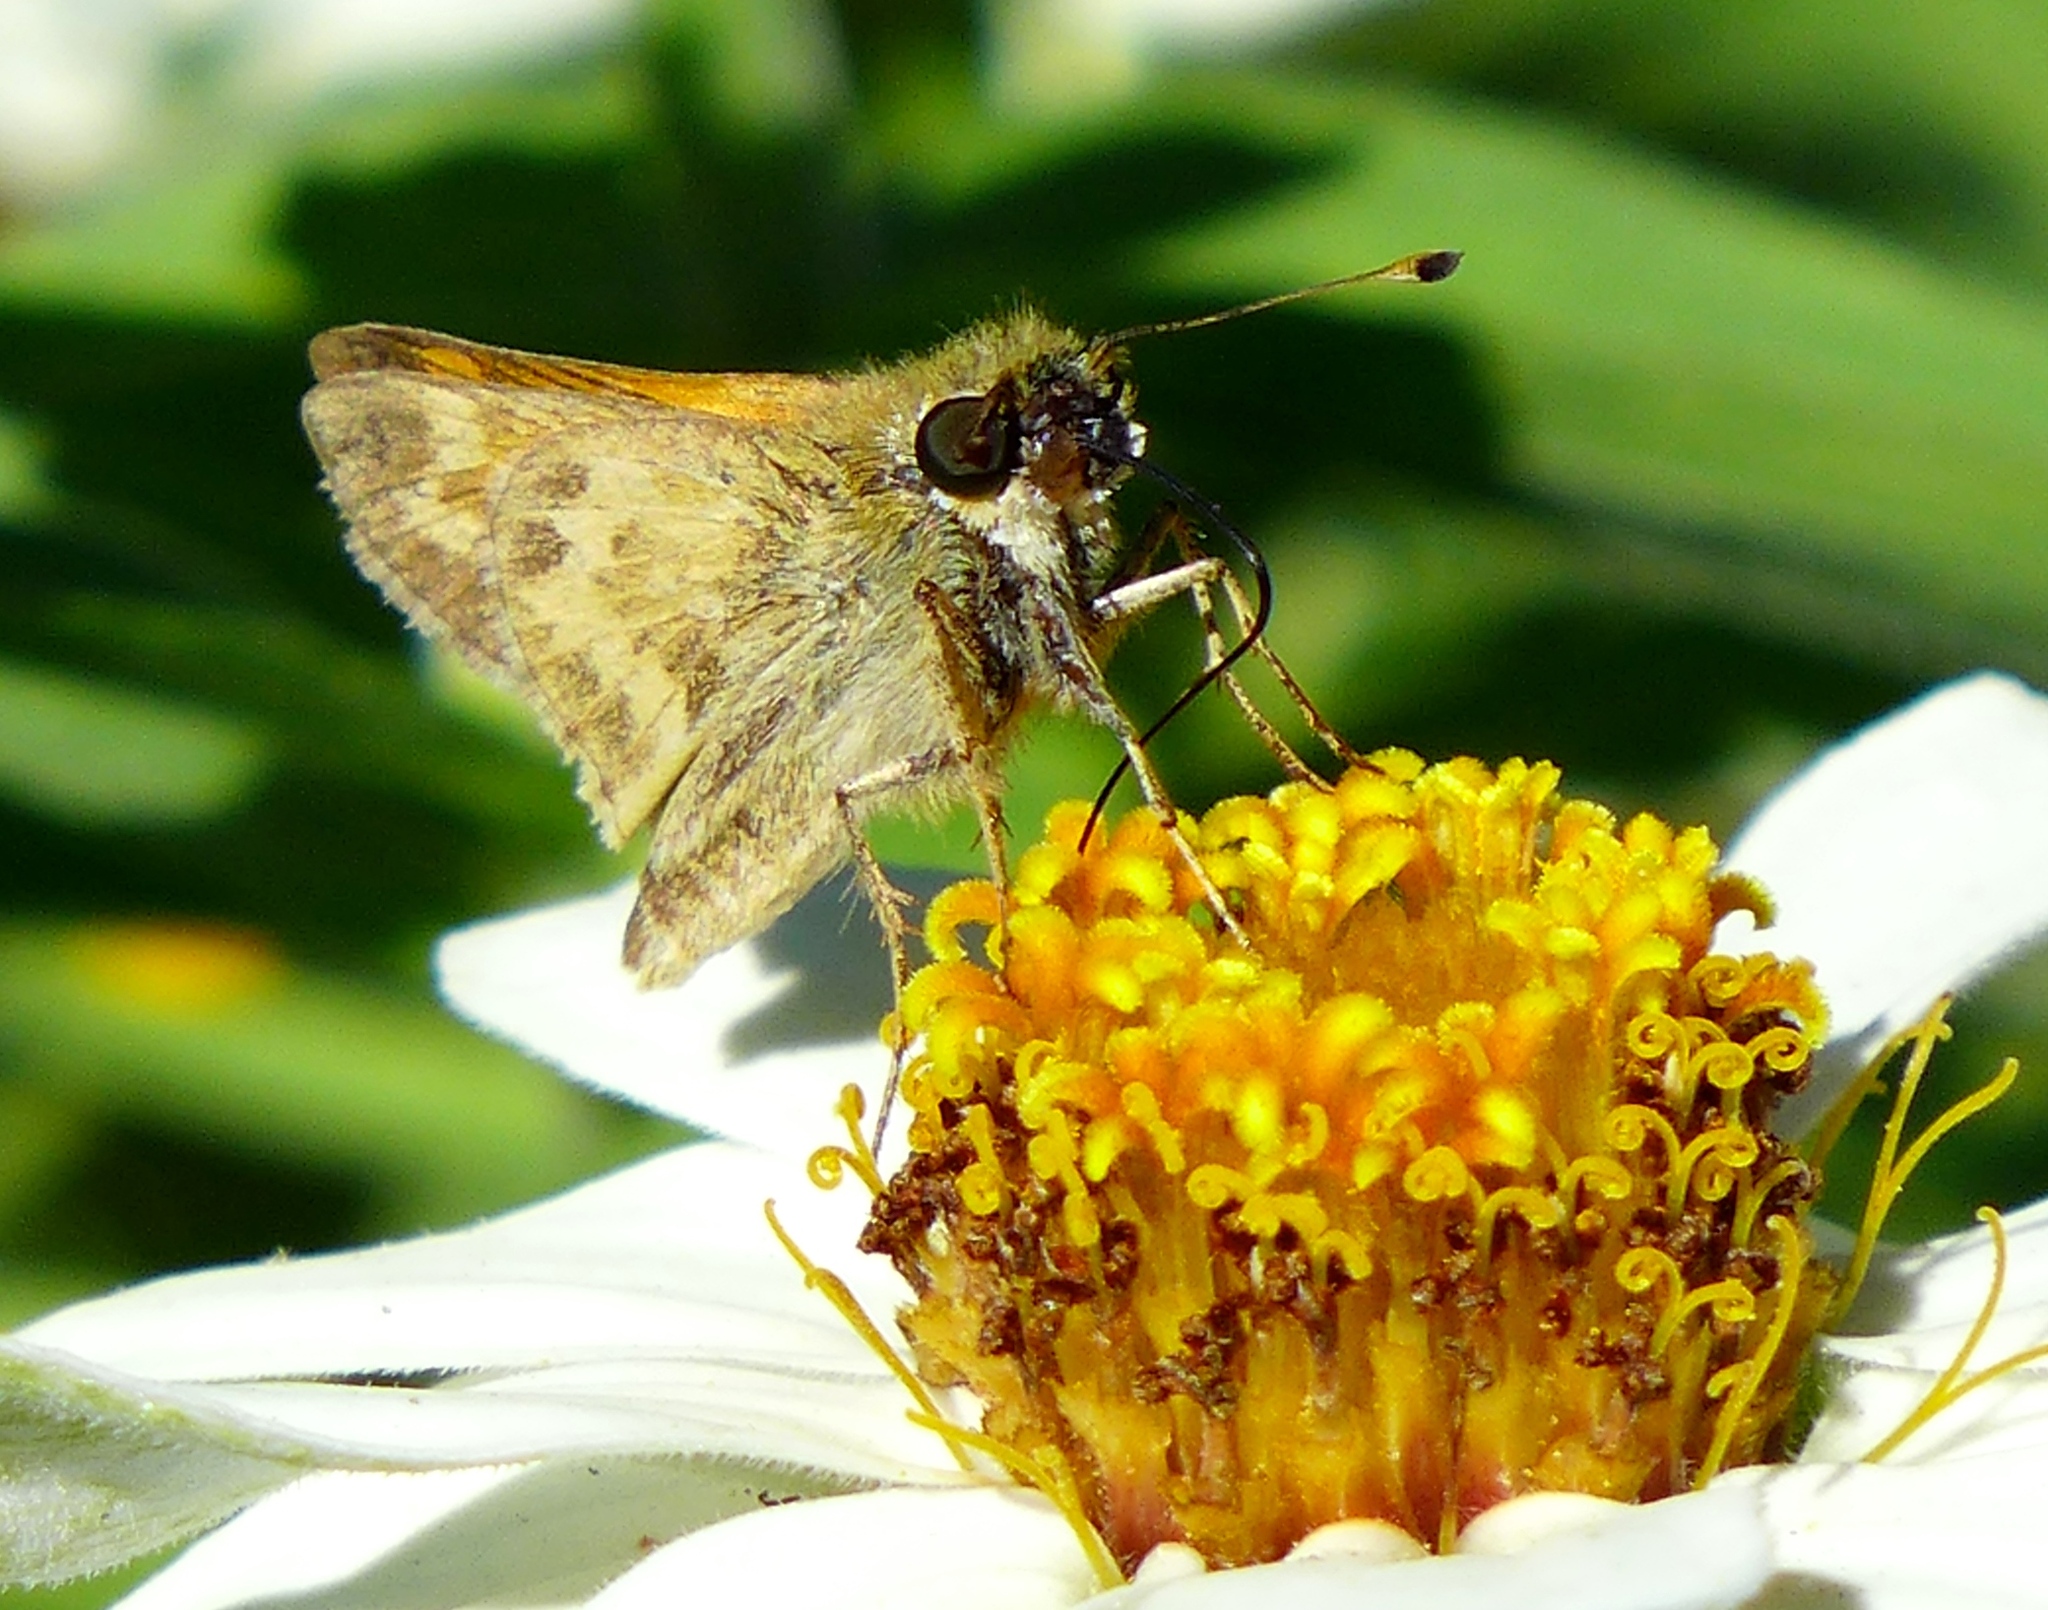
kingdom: Animalia
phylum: Arthropoda
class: Insecta
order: Lepidoptera
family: Hesperiidae
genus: Polites
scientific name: Polites sabuleti
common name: Sandhill skipper
